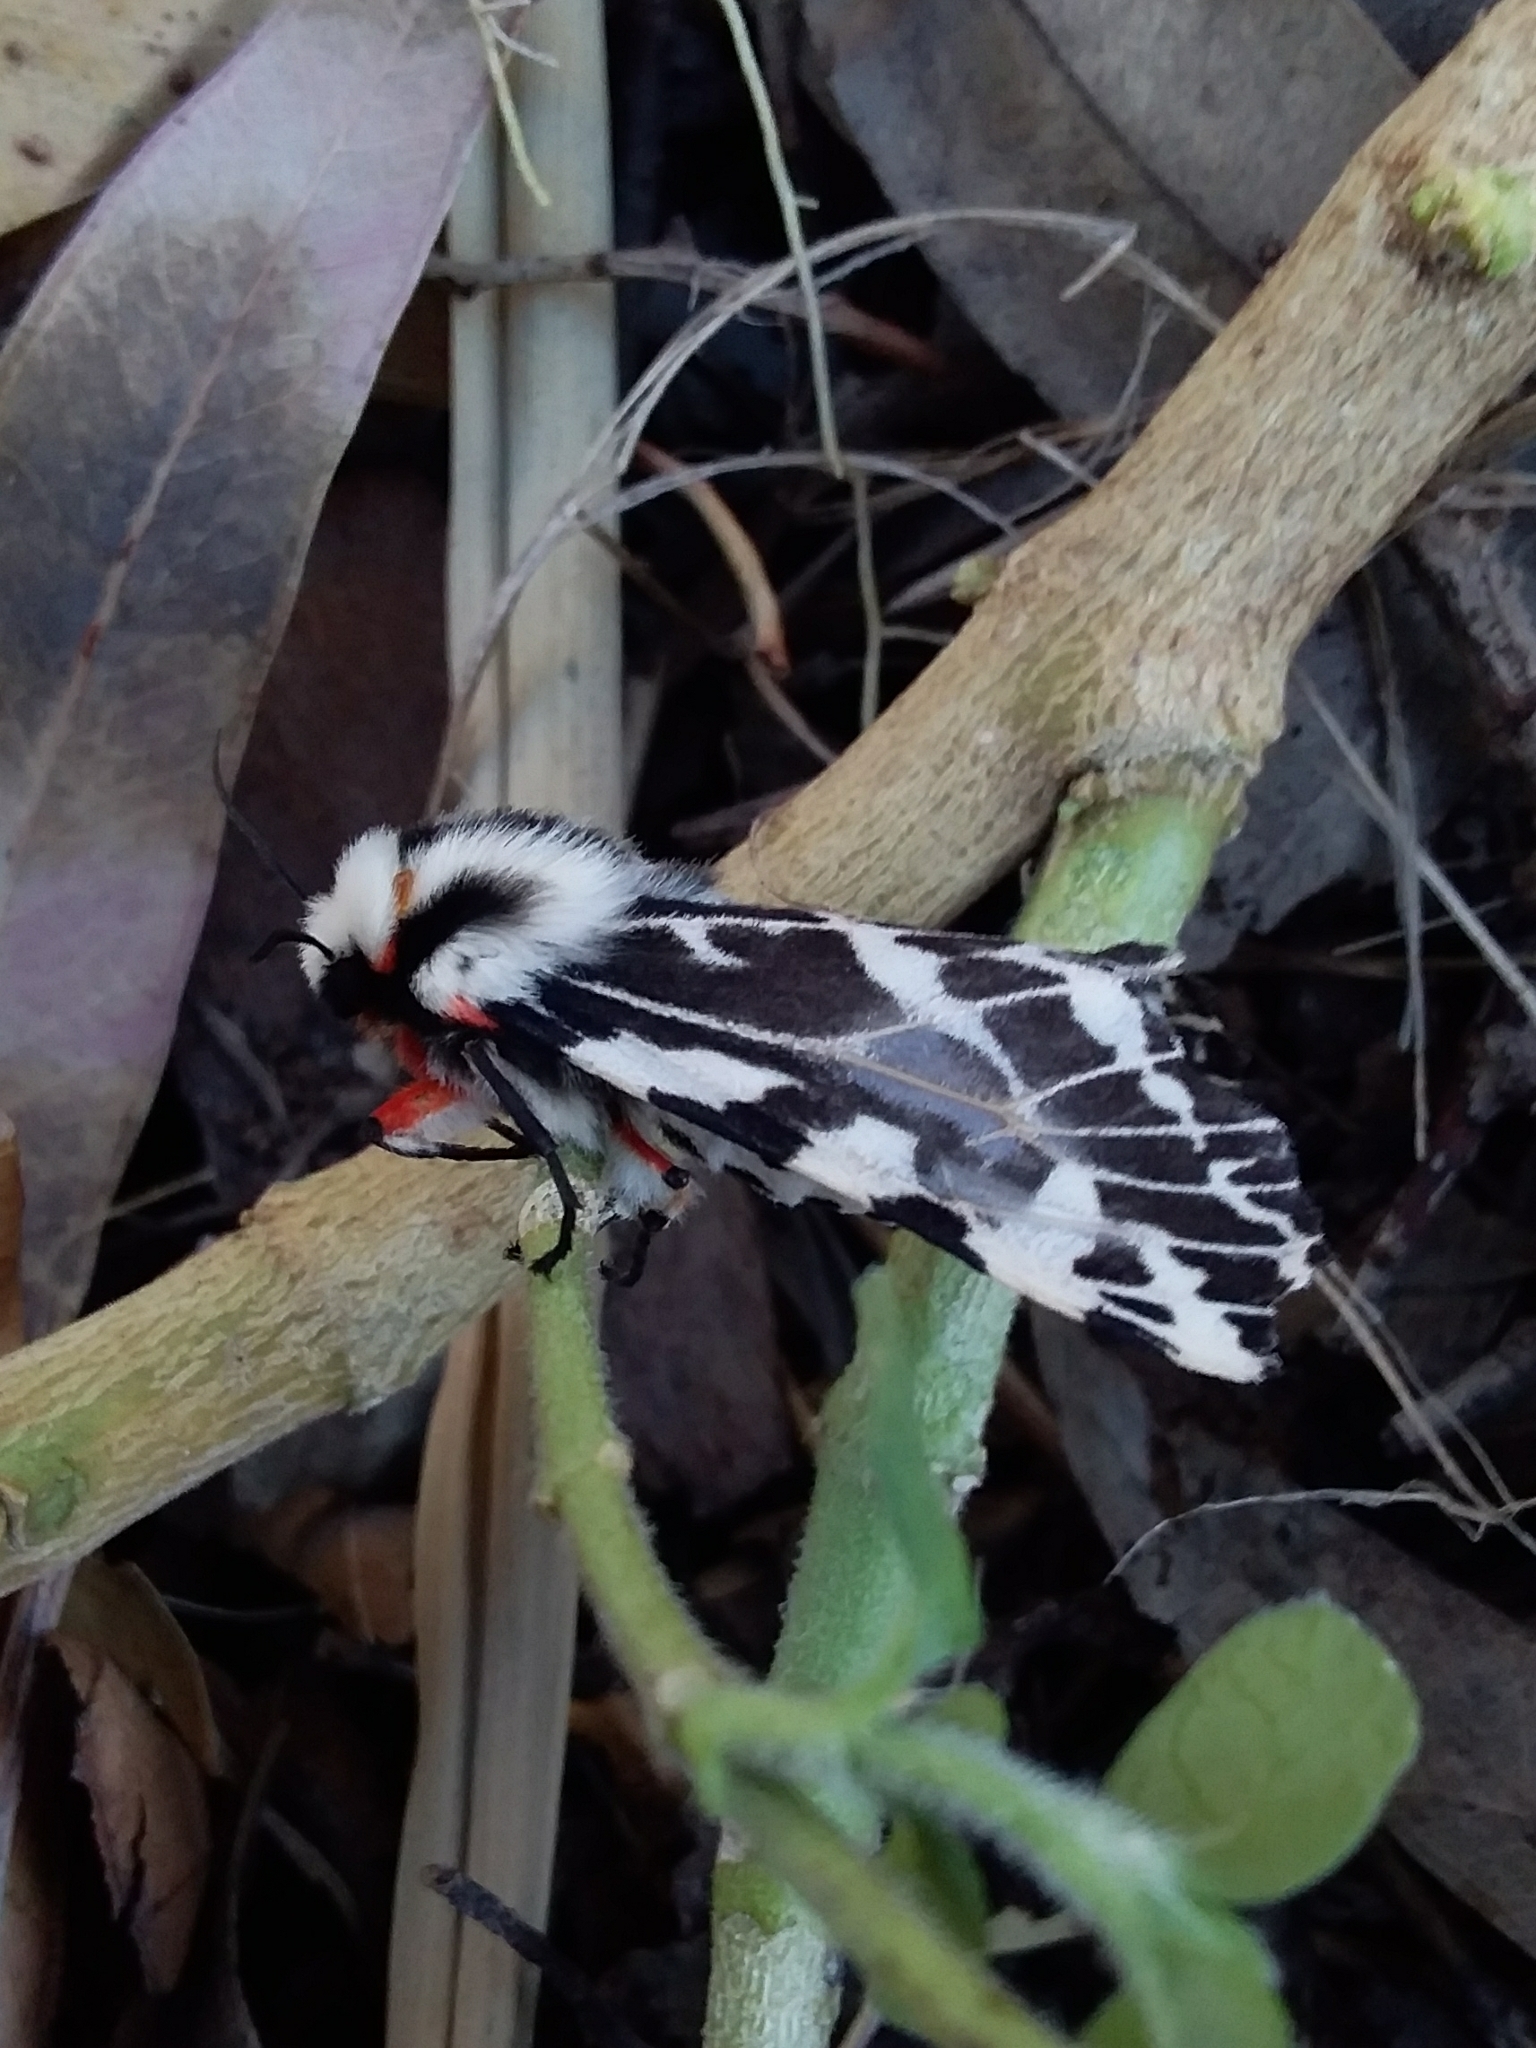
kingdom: Animalia
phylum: Arthropoda
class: Insecta
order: Lepidoptera
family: Erebidae
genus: Ardices
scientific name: Ardices glatignyi
